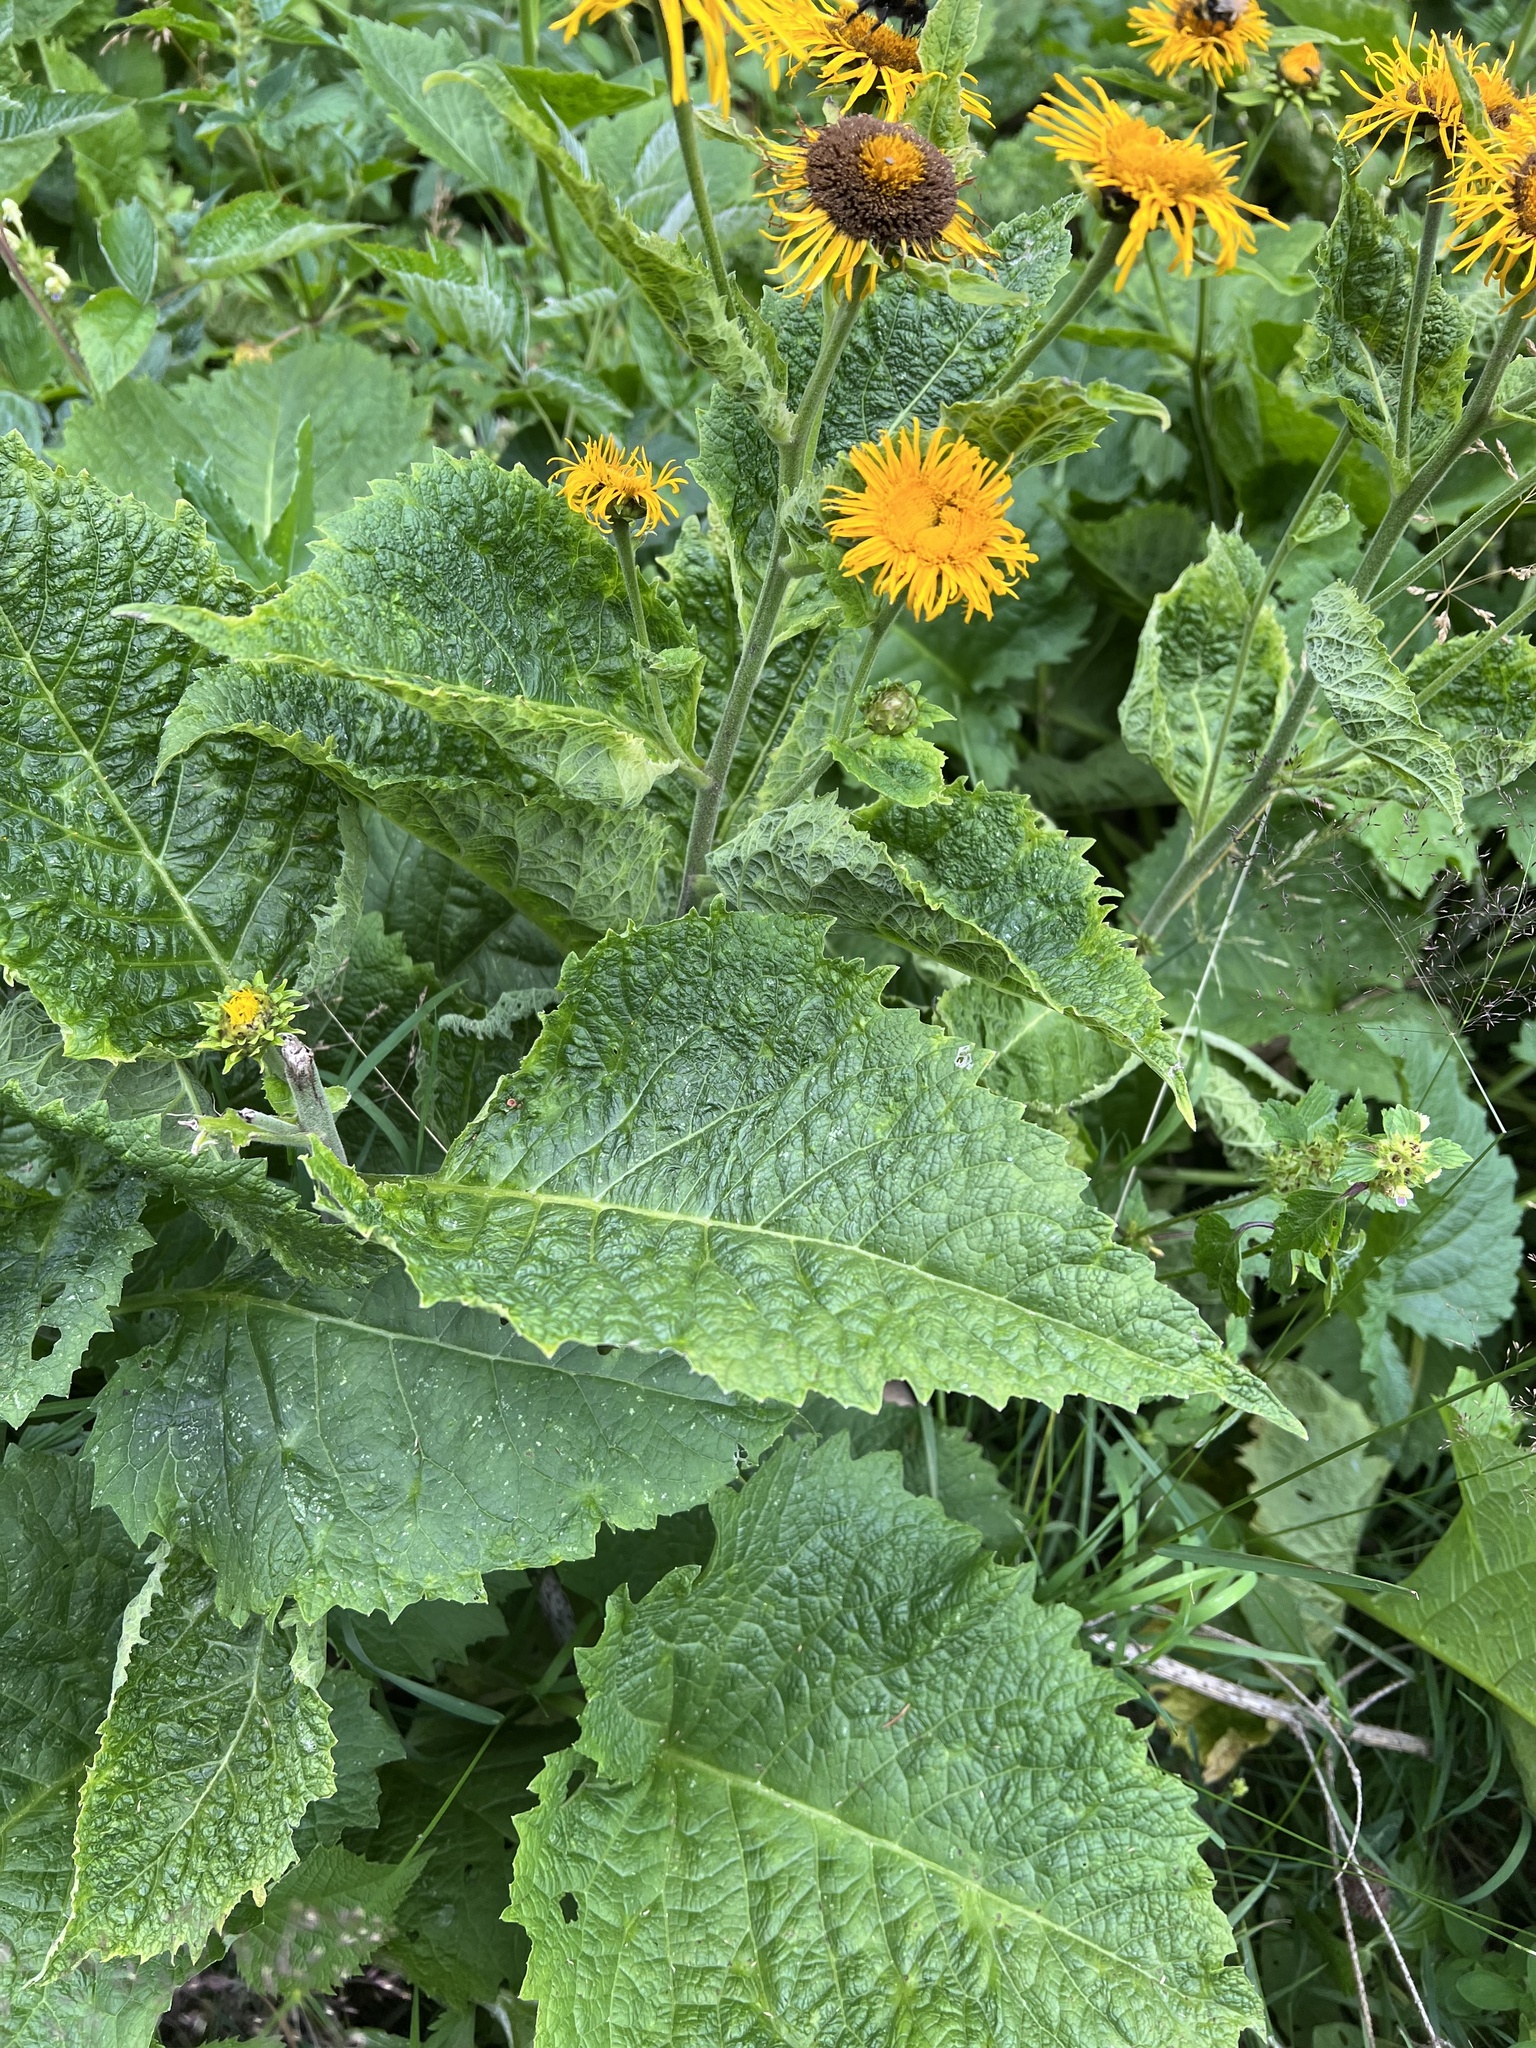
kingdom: Plantae
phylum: Tracheophyta
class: Magnoliopsida
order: Asterales
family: Asteraceae
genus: Telekia
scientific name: Telekia speciosa
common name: Yellow oxeye
